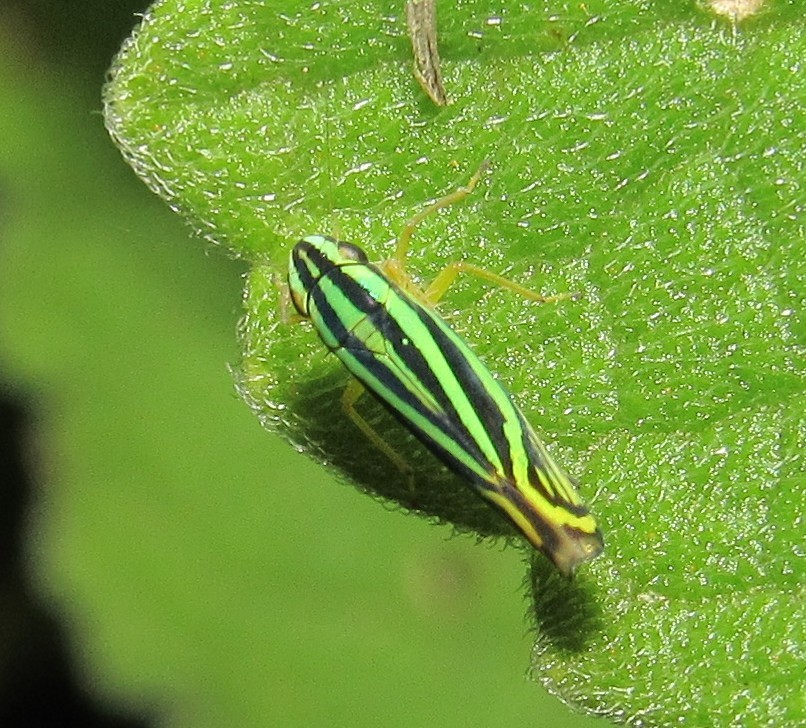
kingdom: Animalia
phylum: Arthropoda
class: Insecta
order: Hemiptera
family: Cicadellidae
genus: Sibovia
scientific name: Sibovia sagata
